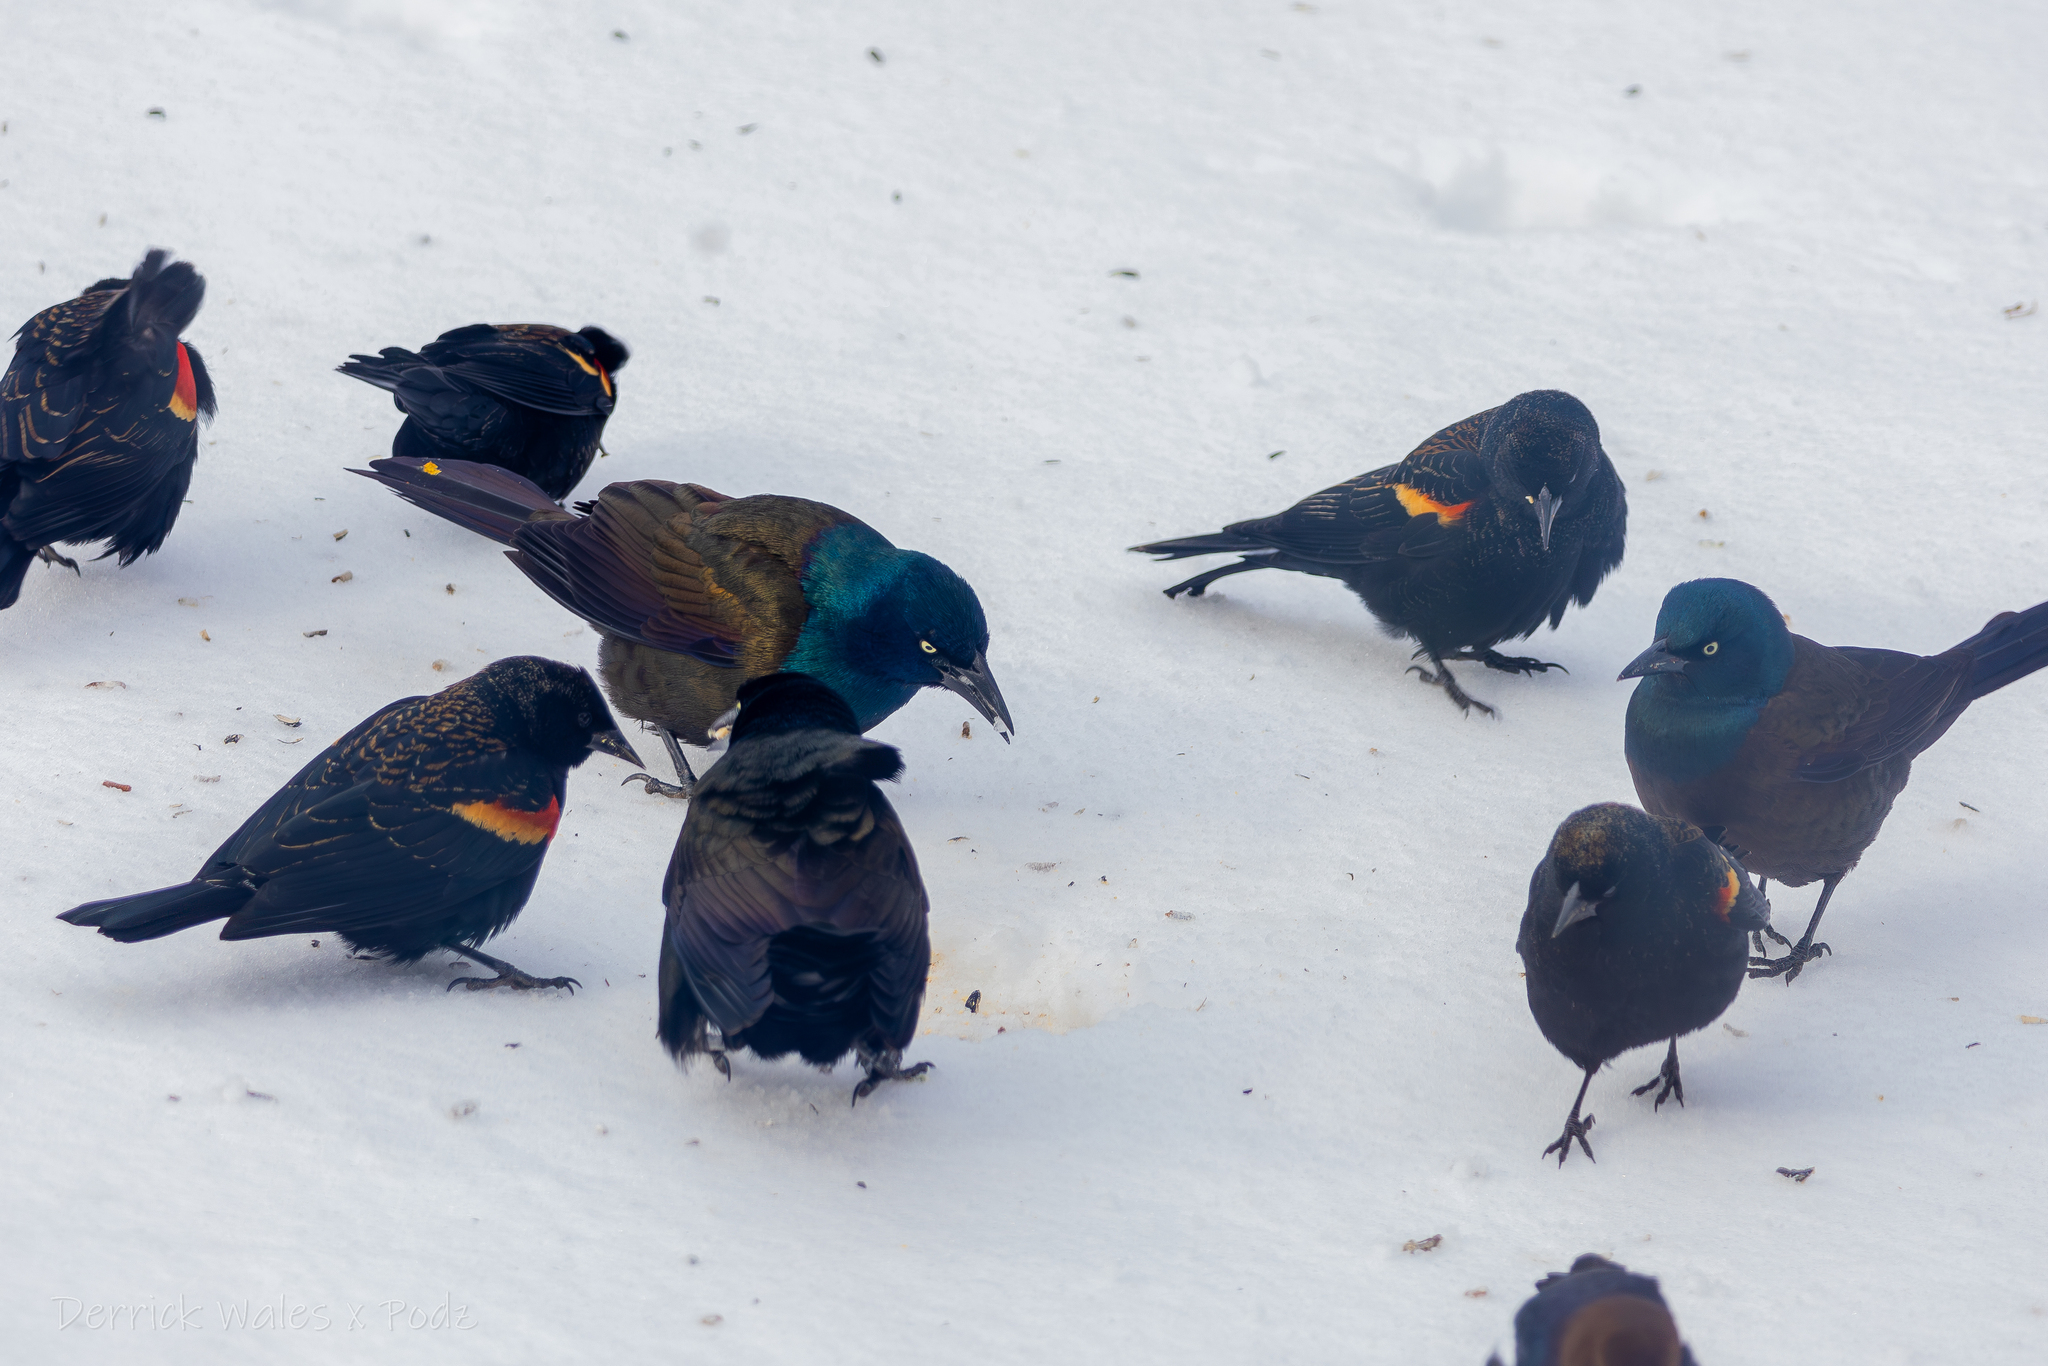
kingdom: Animalia
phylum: Chordata
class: Aves
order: Passeriformes
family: Icteridae
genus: Quiscalus
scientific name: Quiscalus quiscula
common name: Common grackle
